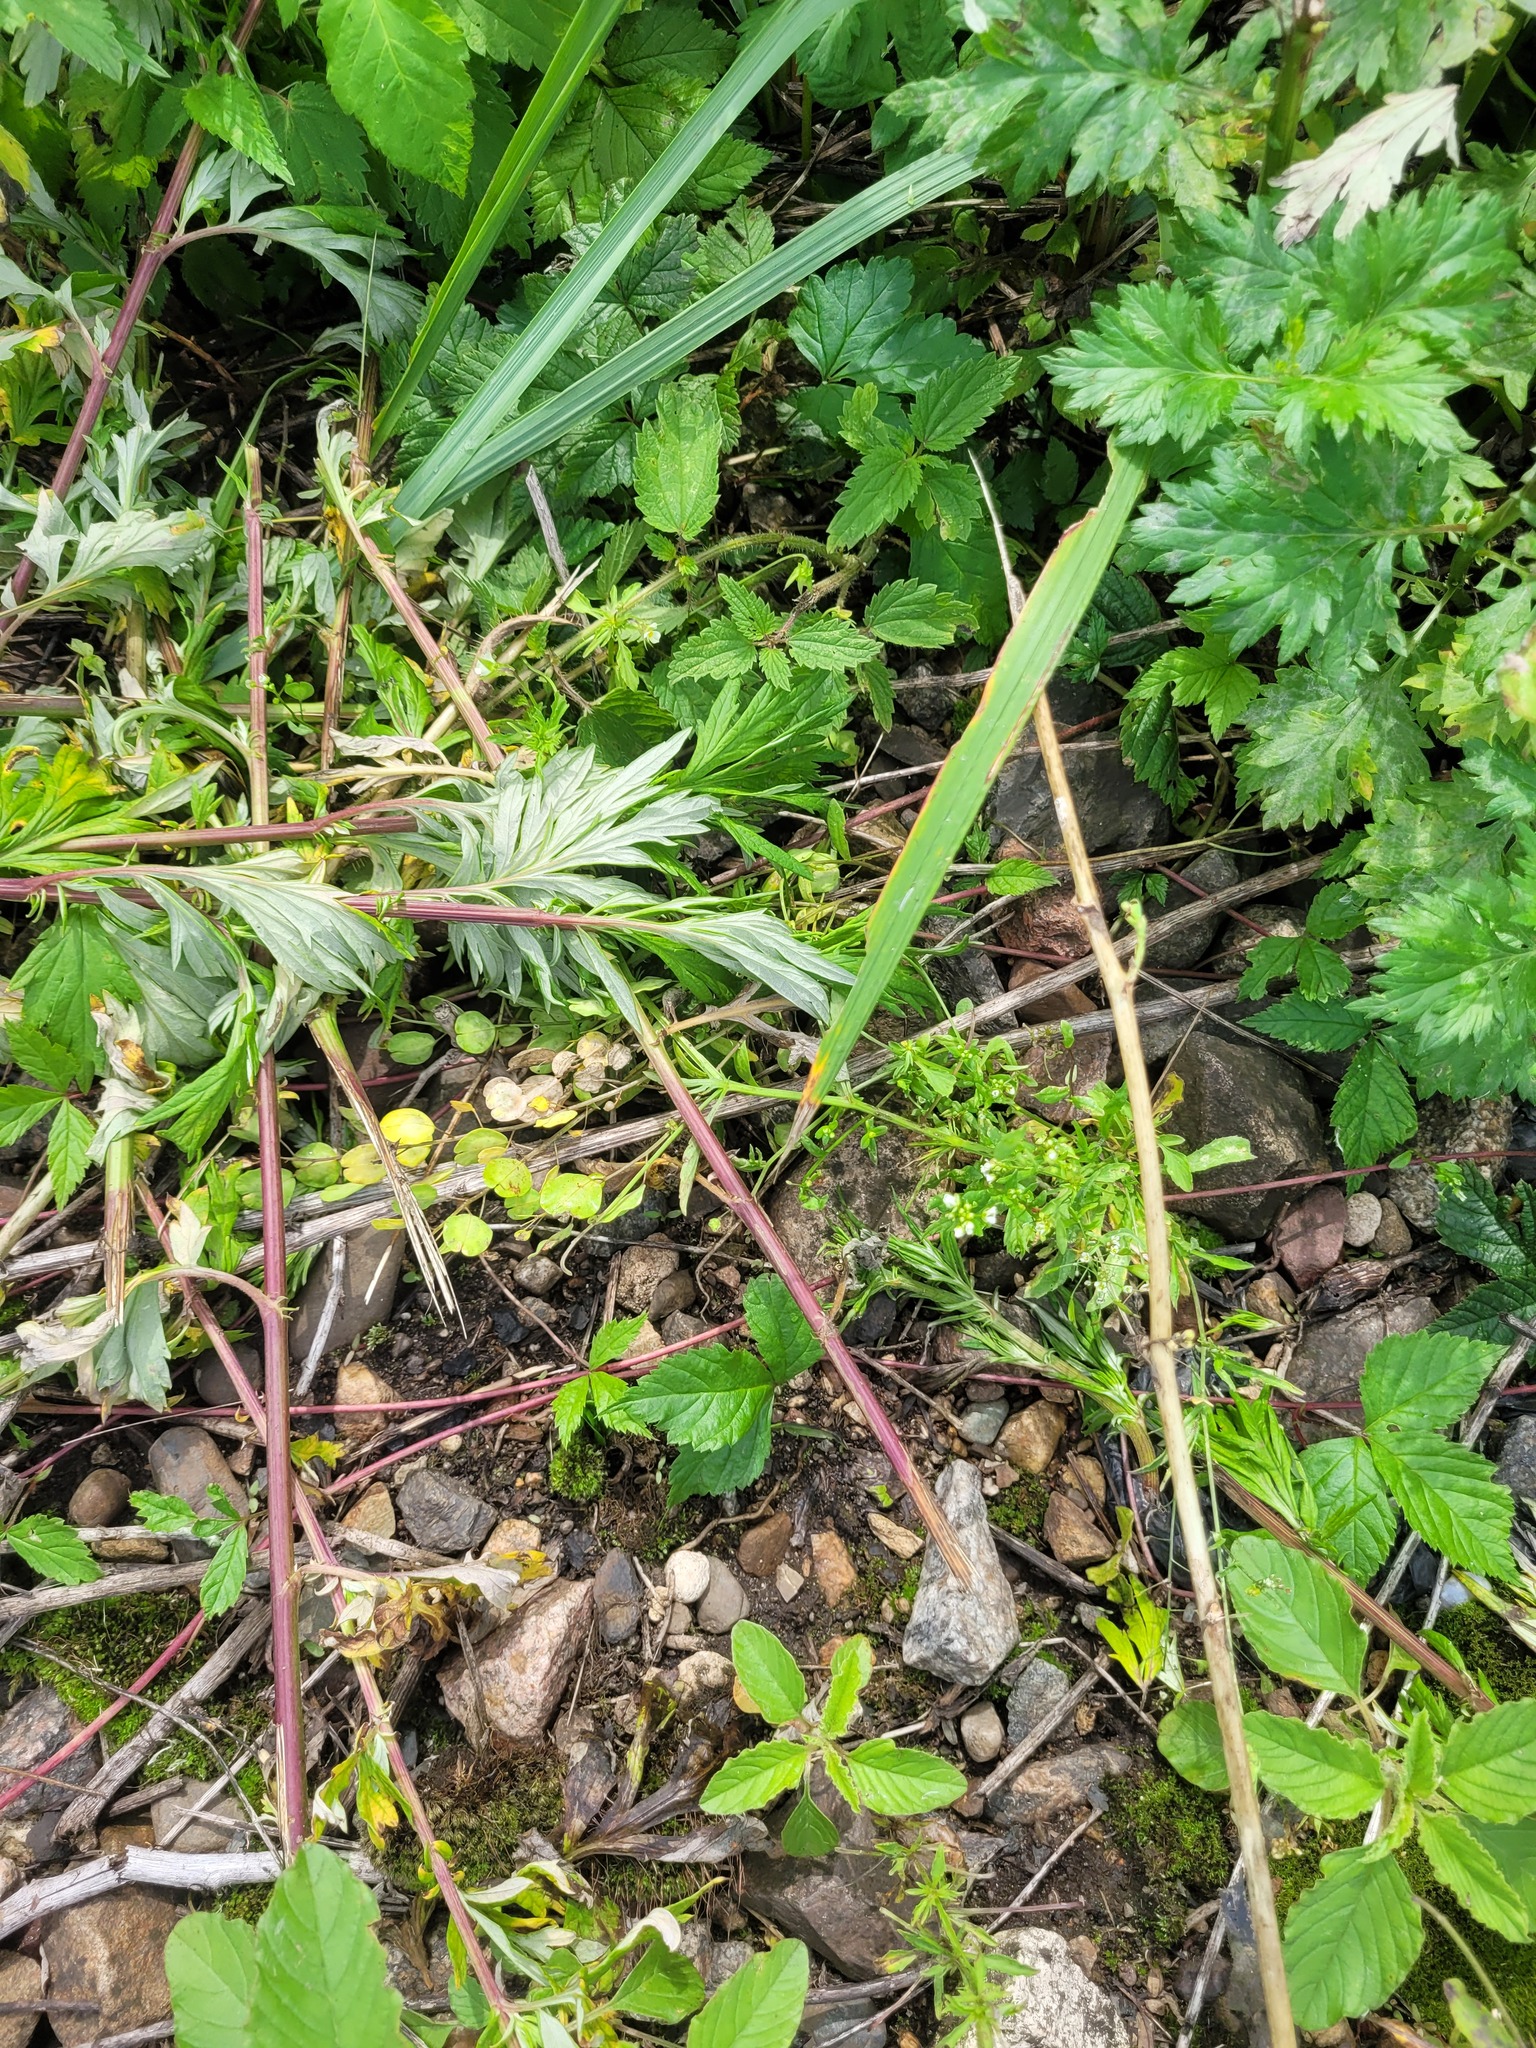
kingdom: Plantae
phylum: Tracheophyta
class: Magnoliopsida
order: Brassicales
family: Brassicaceae
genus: Thlaspi
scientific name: Thlaspi arvense
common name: Field pennycress
